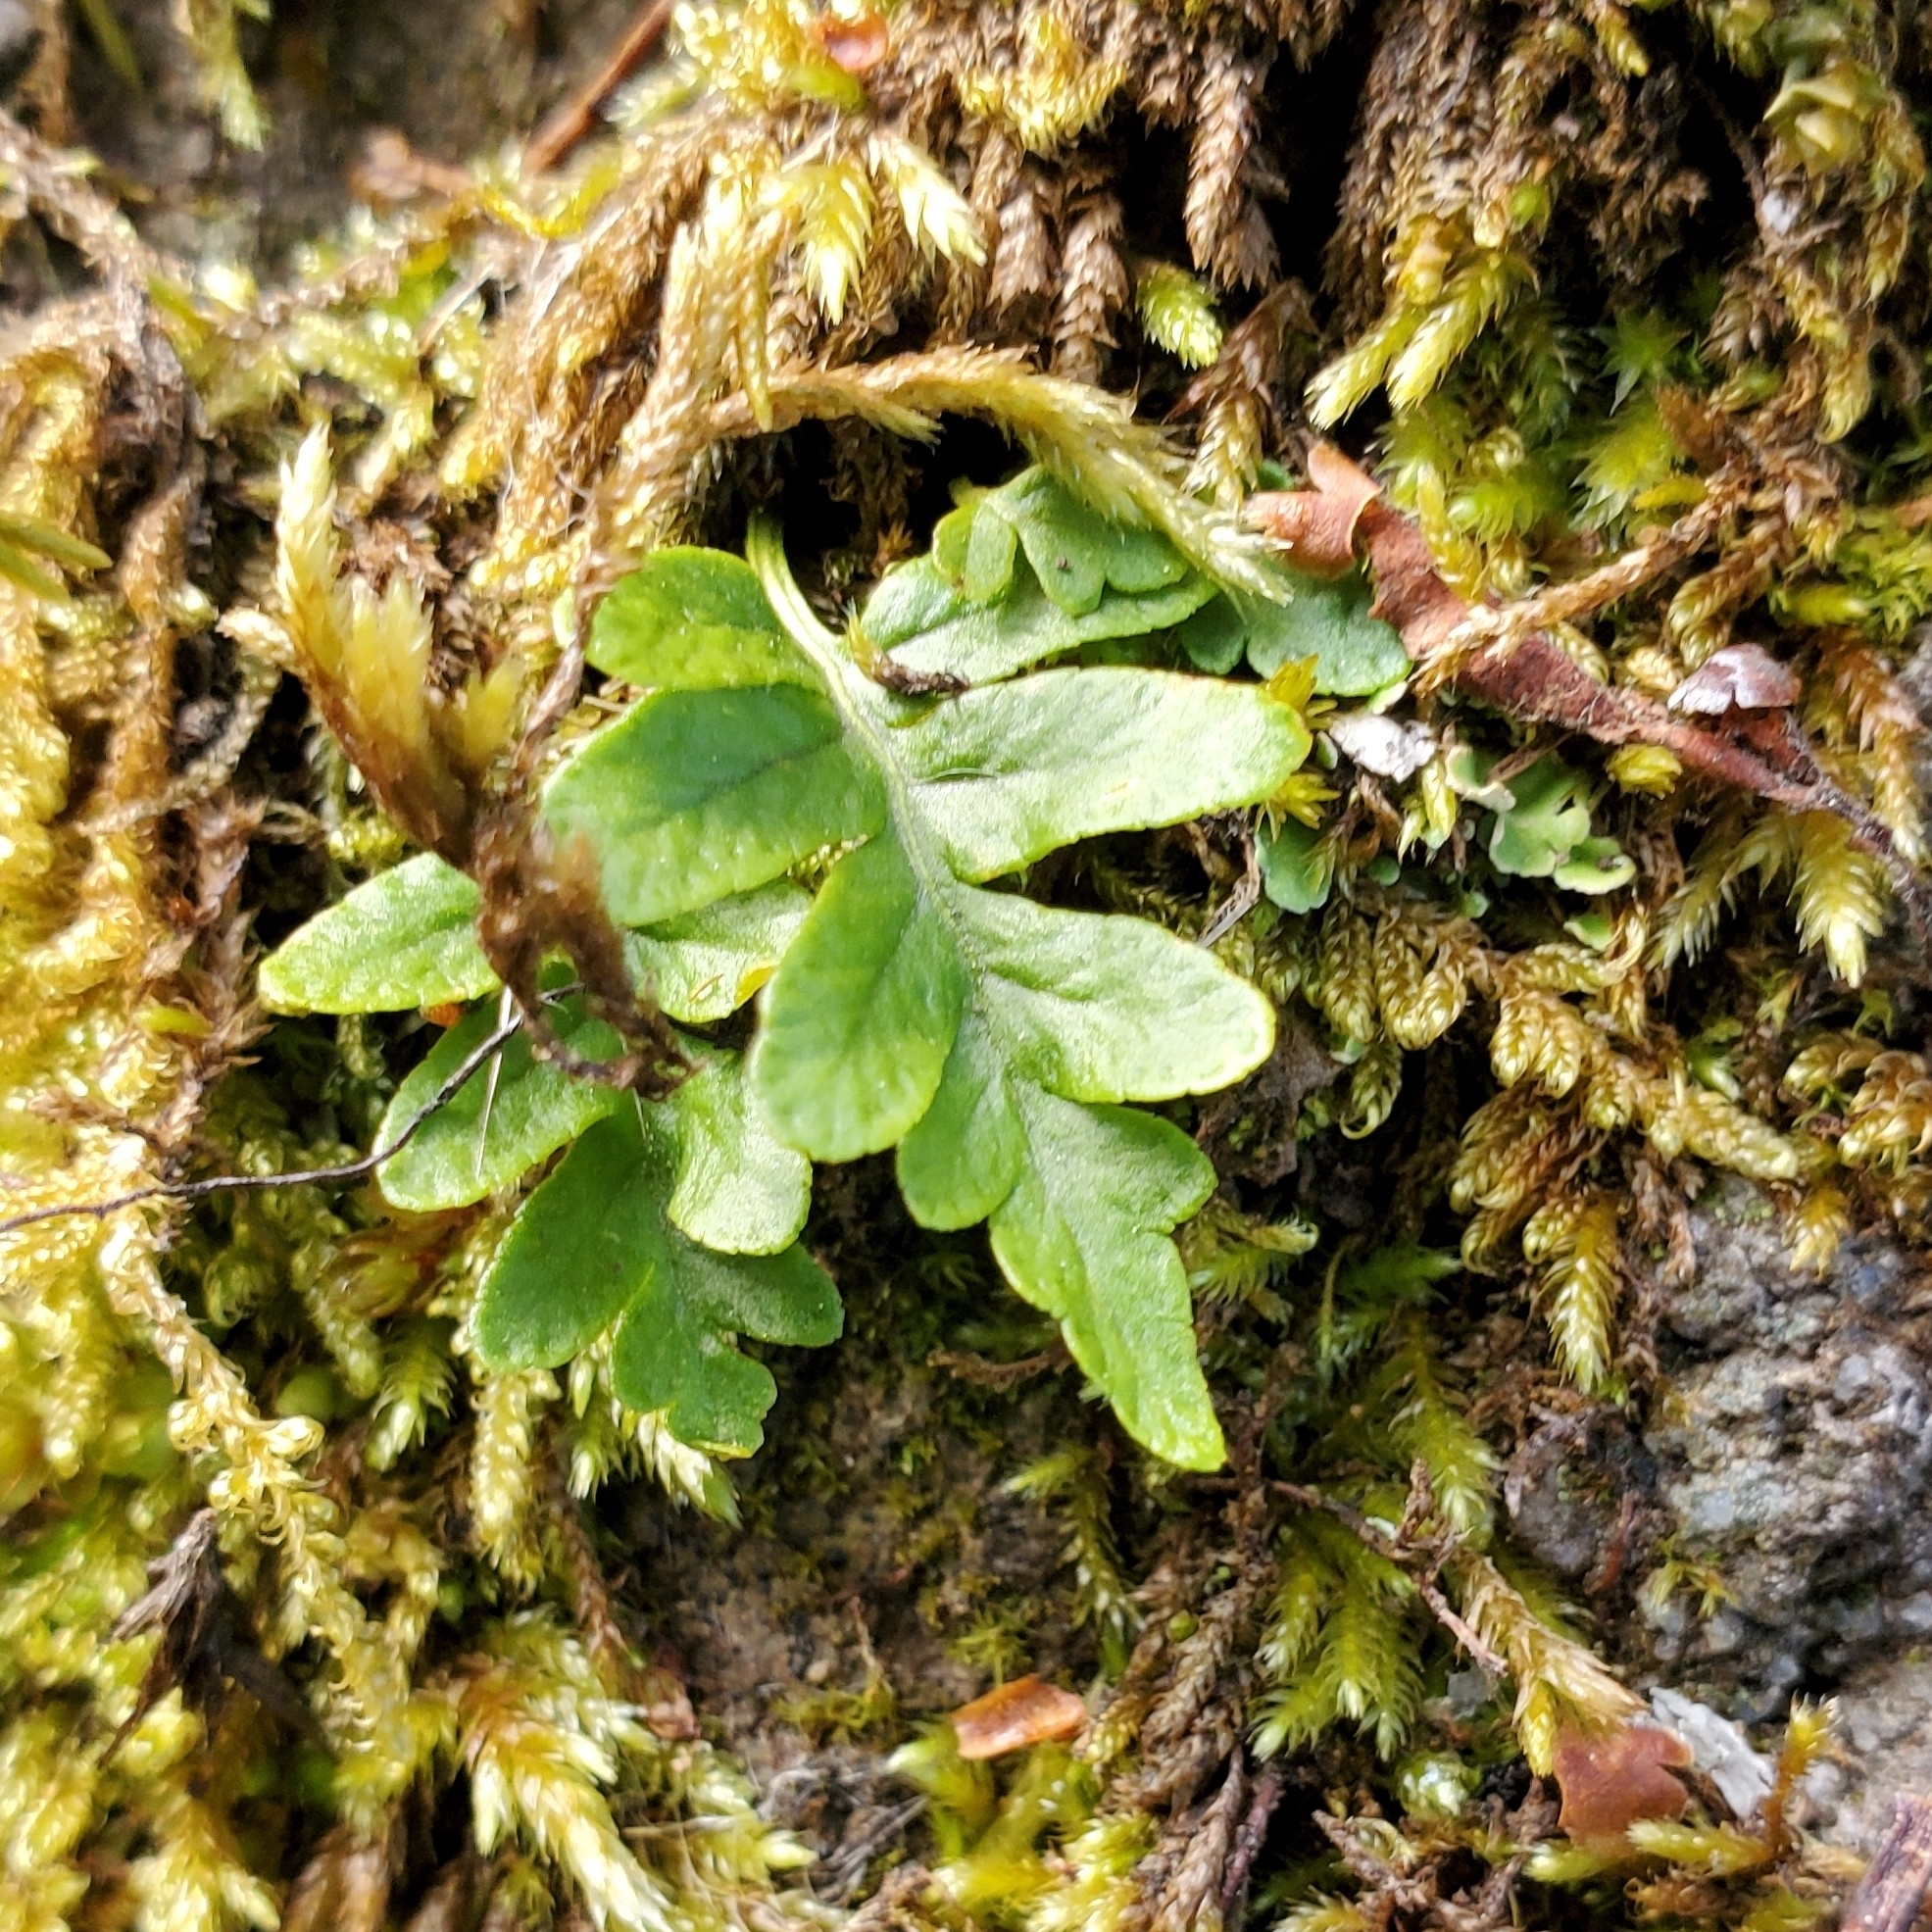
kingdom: Plantae
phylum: Tracheophyta
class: Polypodiopsida
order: Polypodiales
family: Polypodiaceae
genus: Polypodium
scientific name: Polypodium glycyrrhiza
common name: Licorice fern
